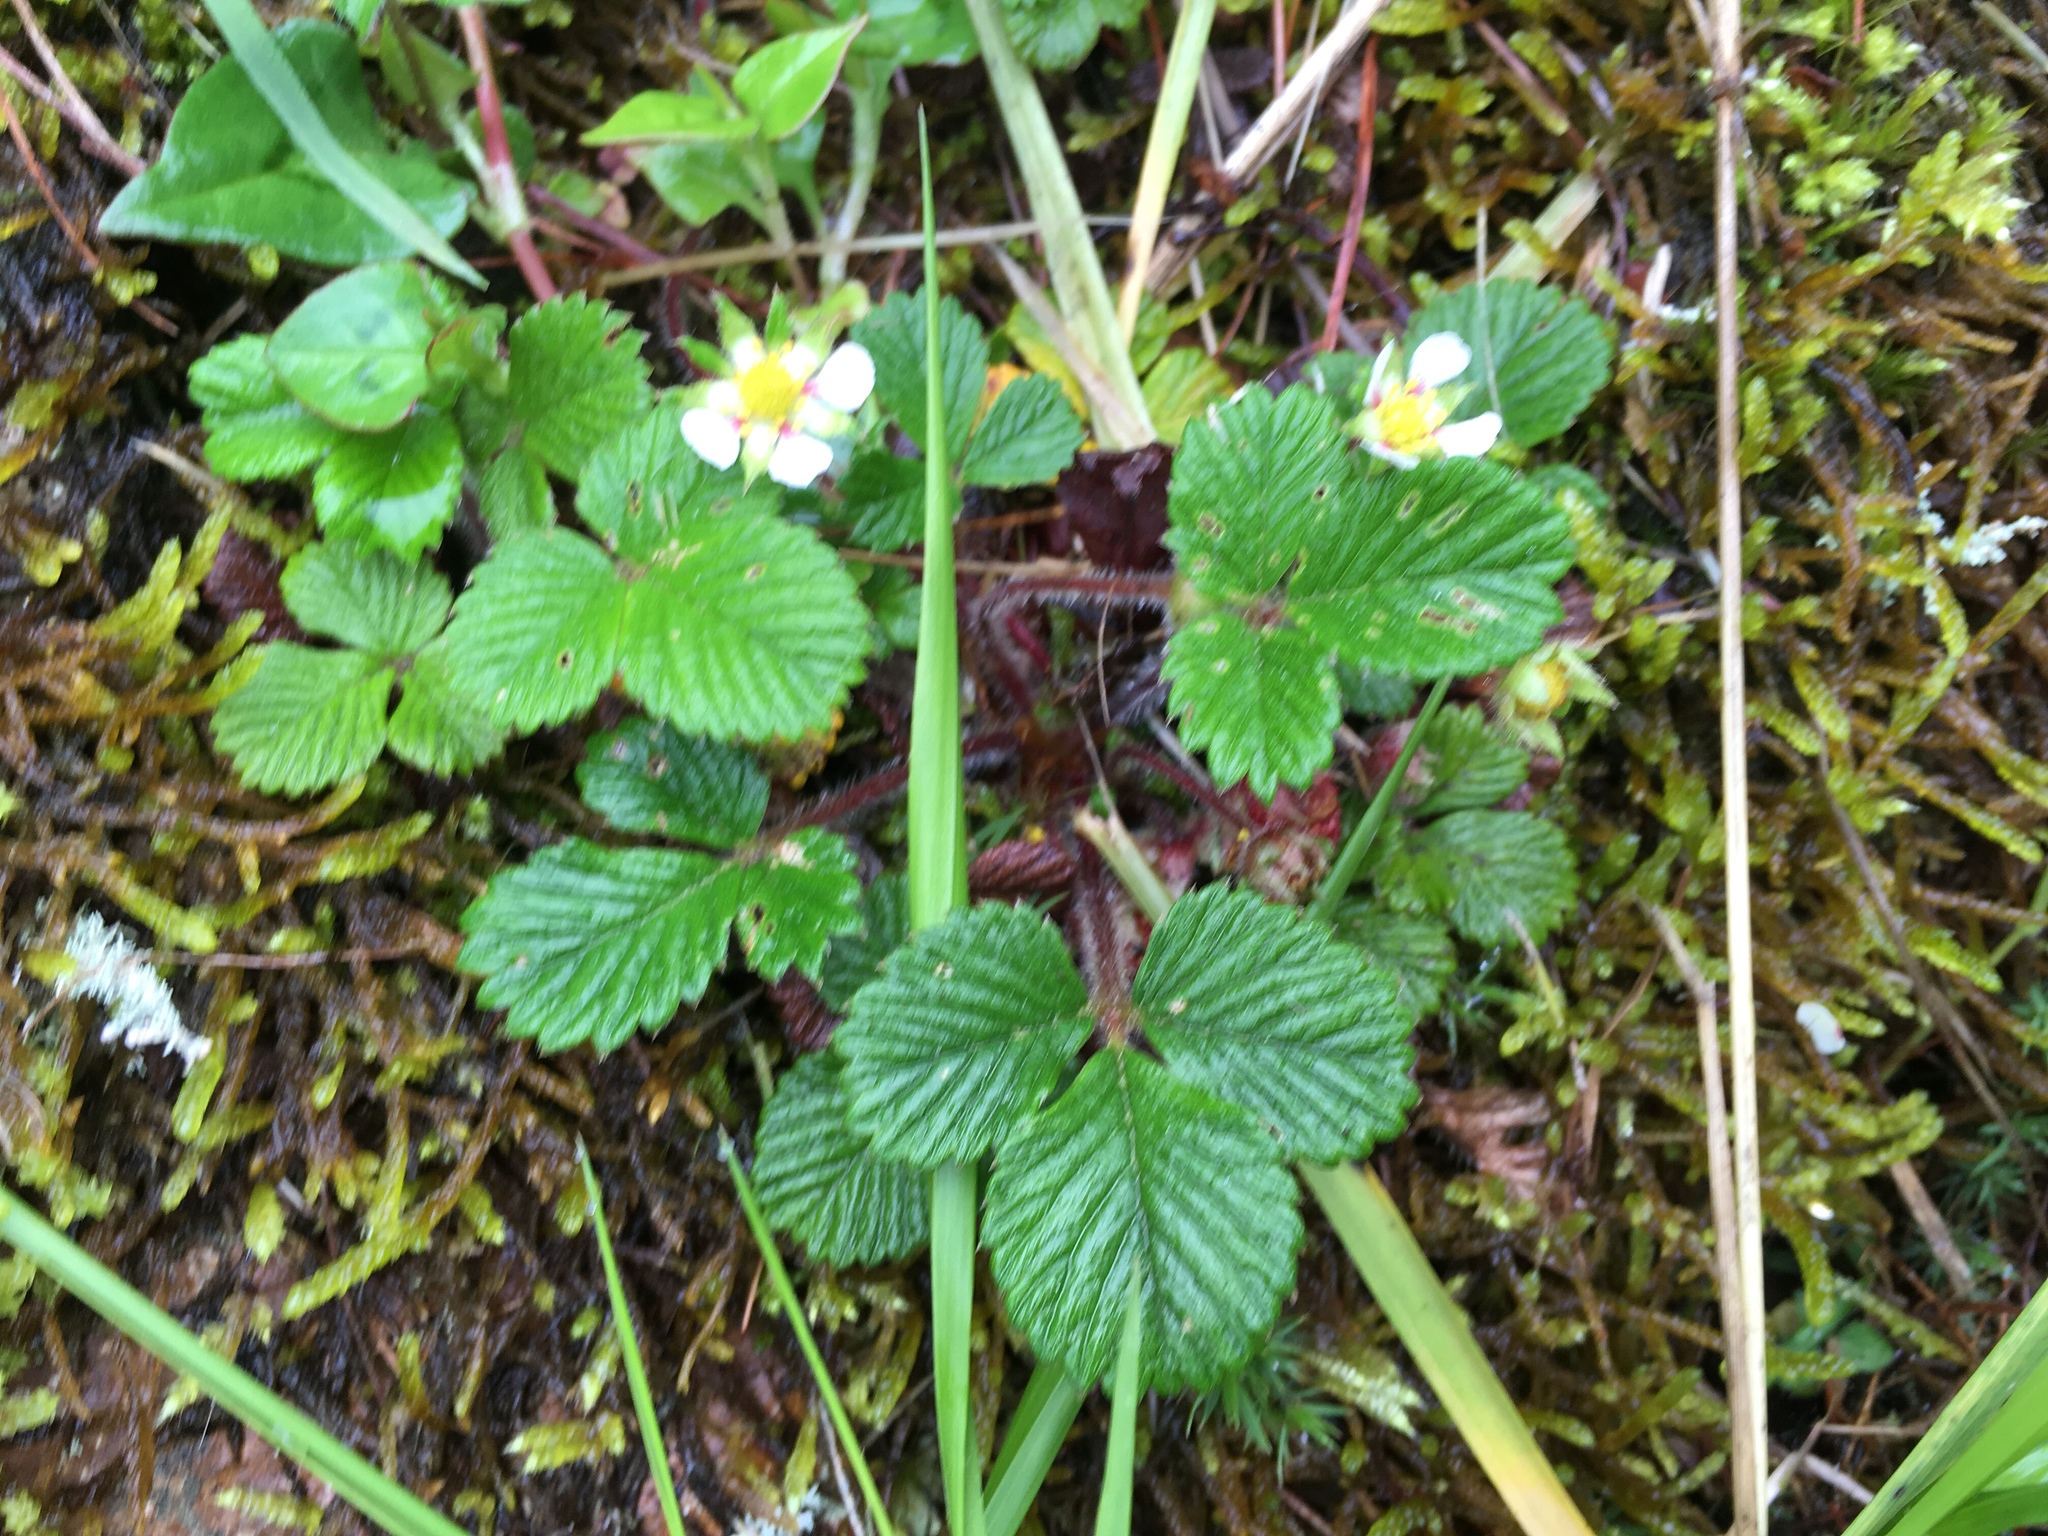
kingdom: Plantae
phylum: Tracheophyta
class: Magnoliopsida
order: Rosales
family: Rosaceae
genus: Fragaria
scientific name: Fragaria nilgerrensis
